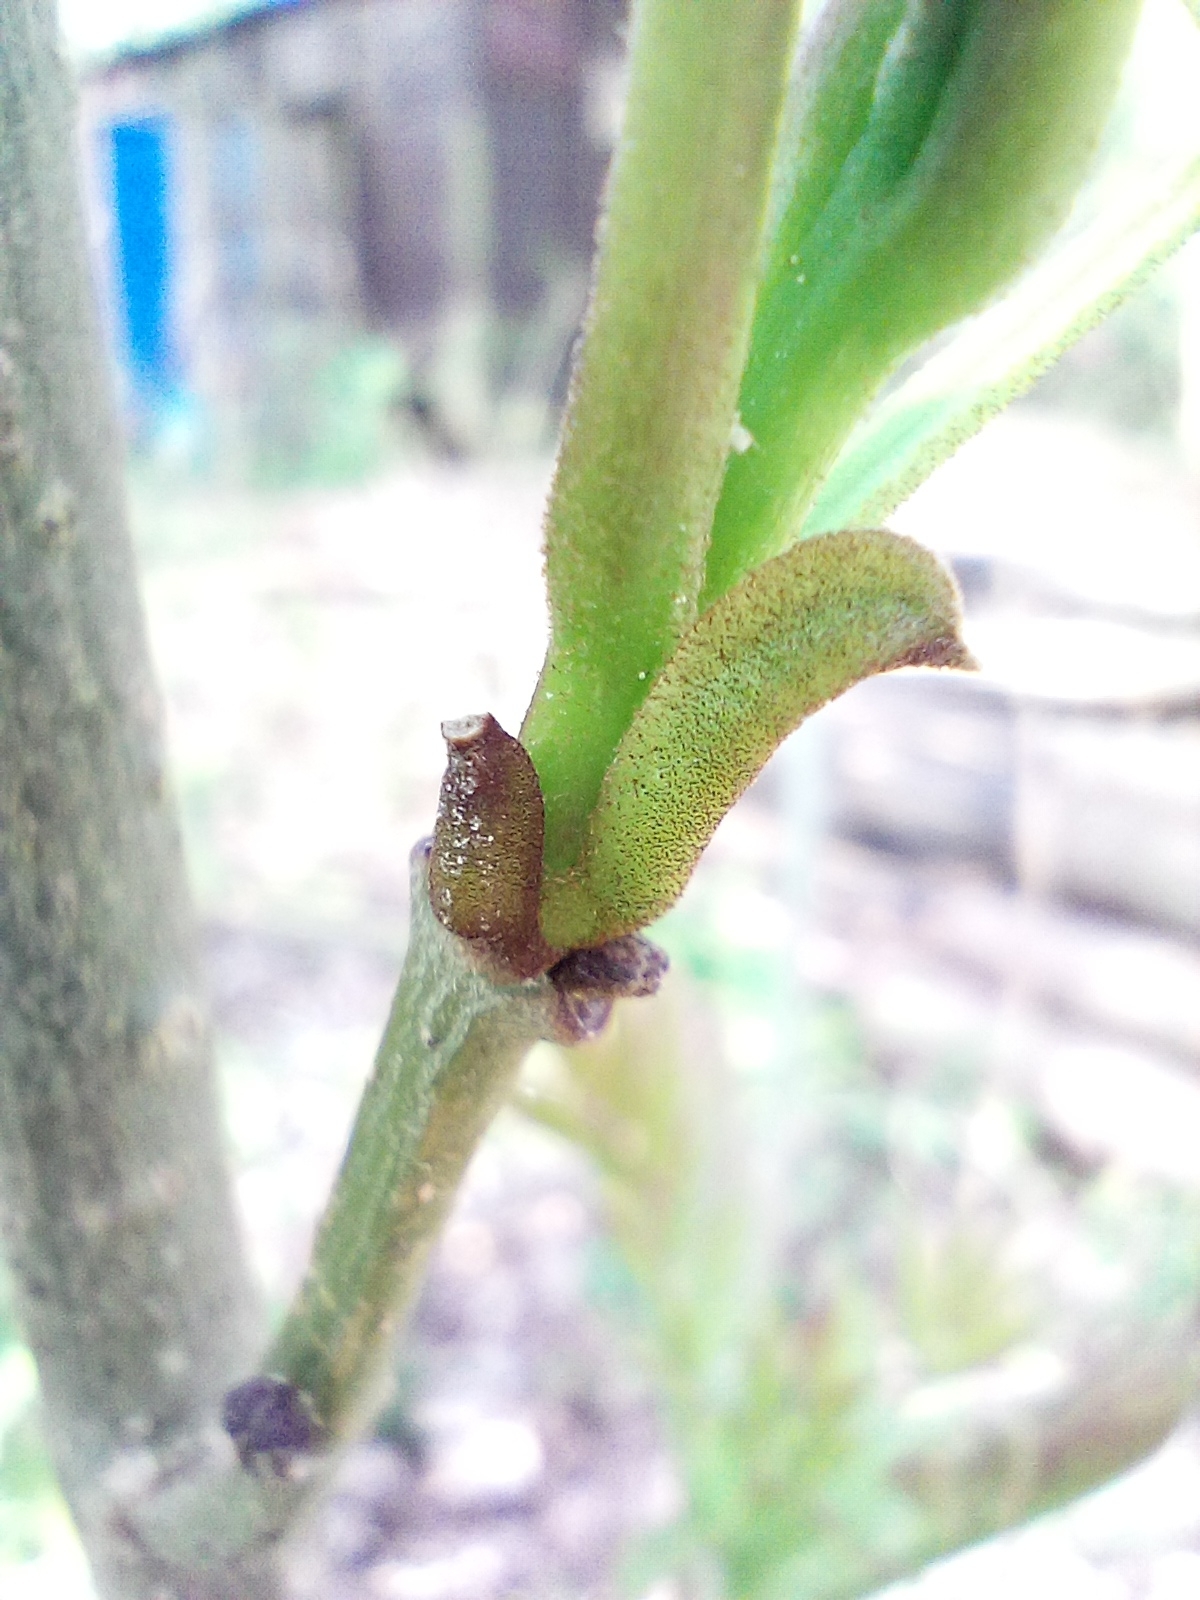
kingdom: Plantae
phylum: Tracheophyta
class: Magnoliopsida
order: Lamiales
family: Oleaceae
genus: Fraxinus
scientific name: Fraxinus excelsior
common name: European ash
